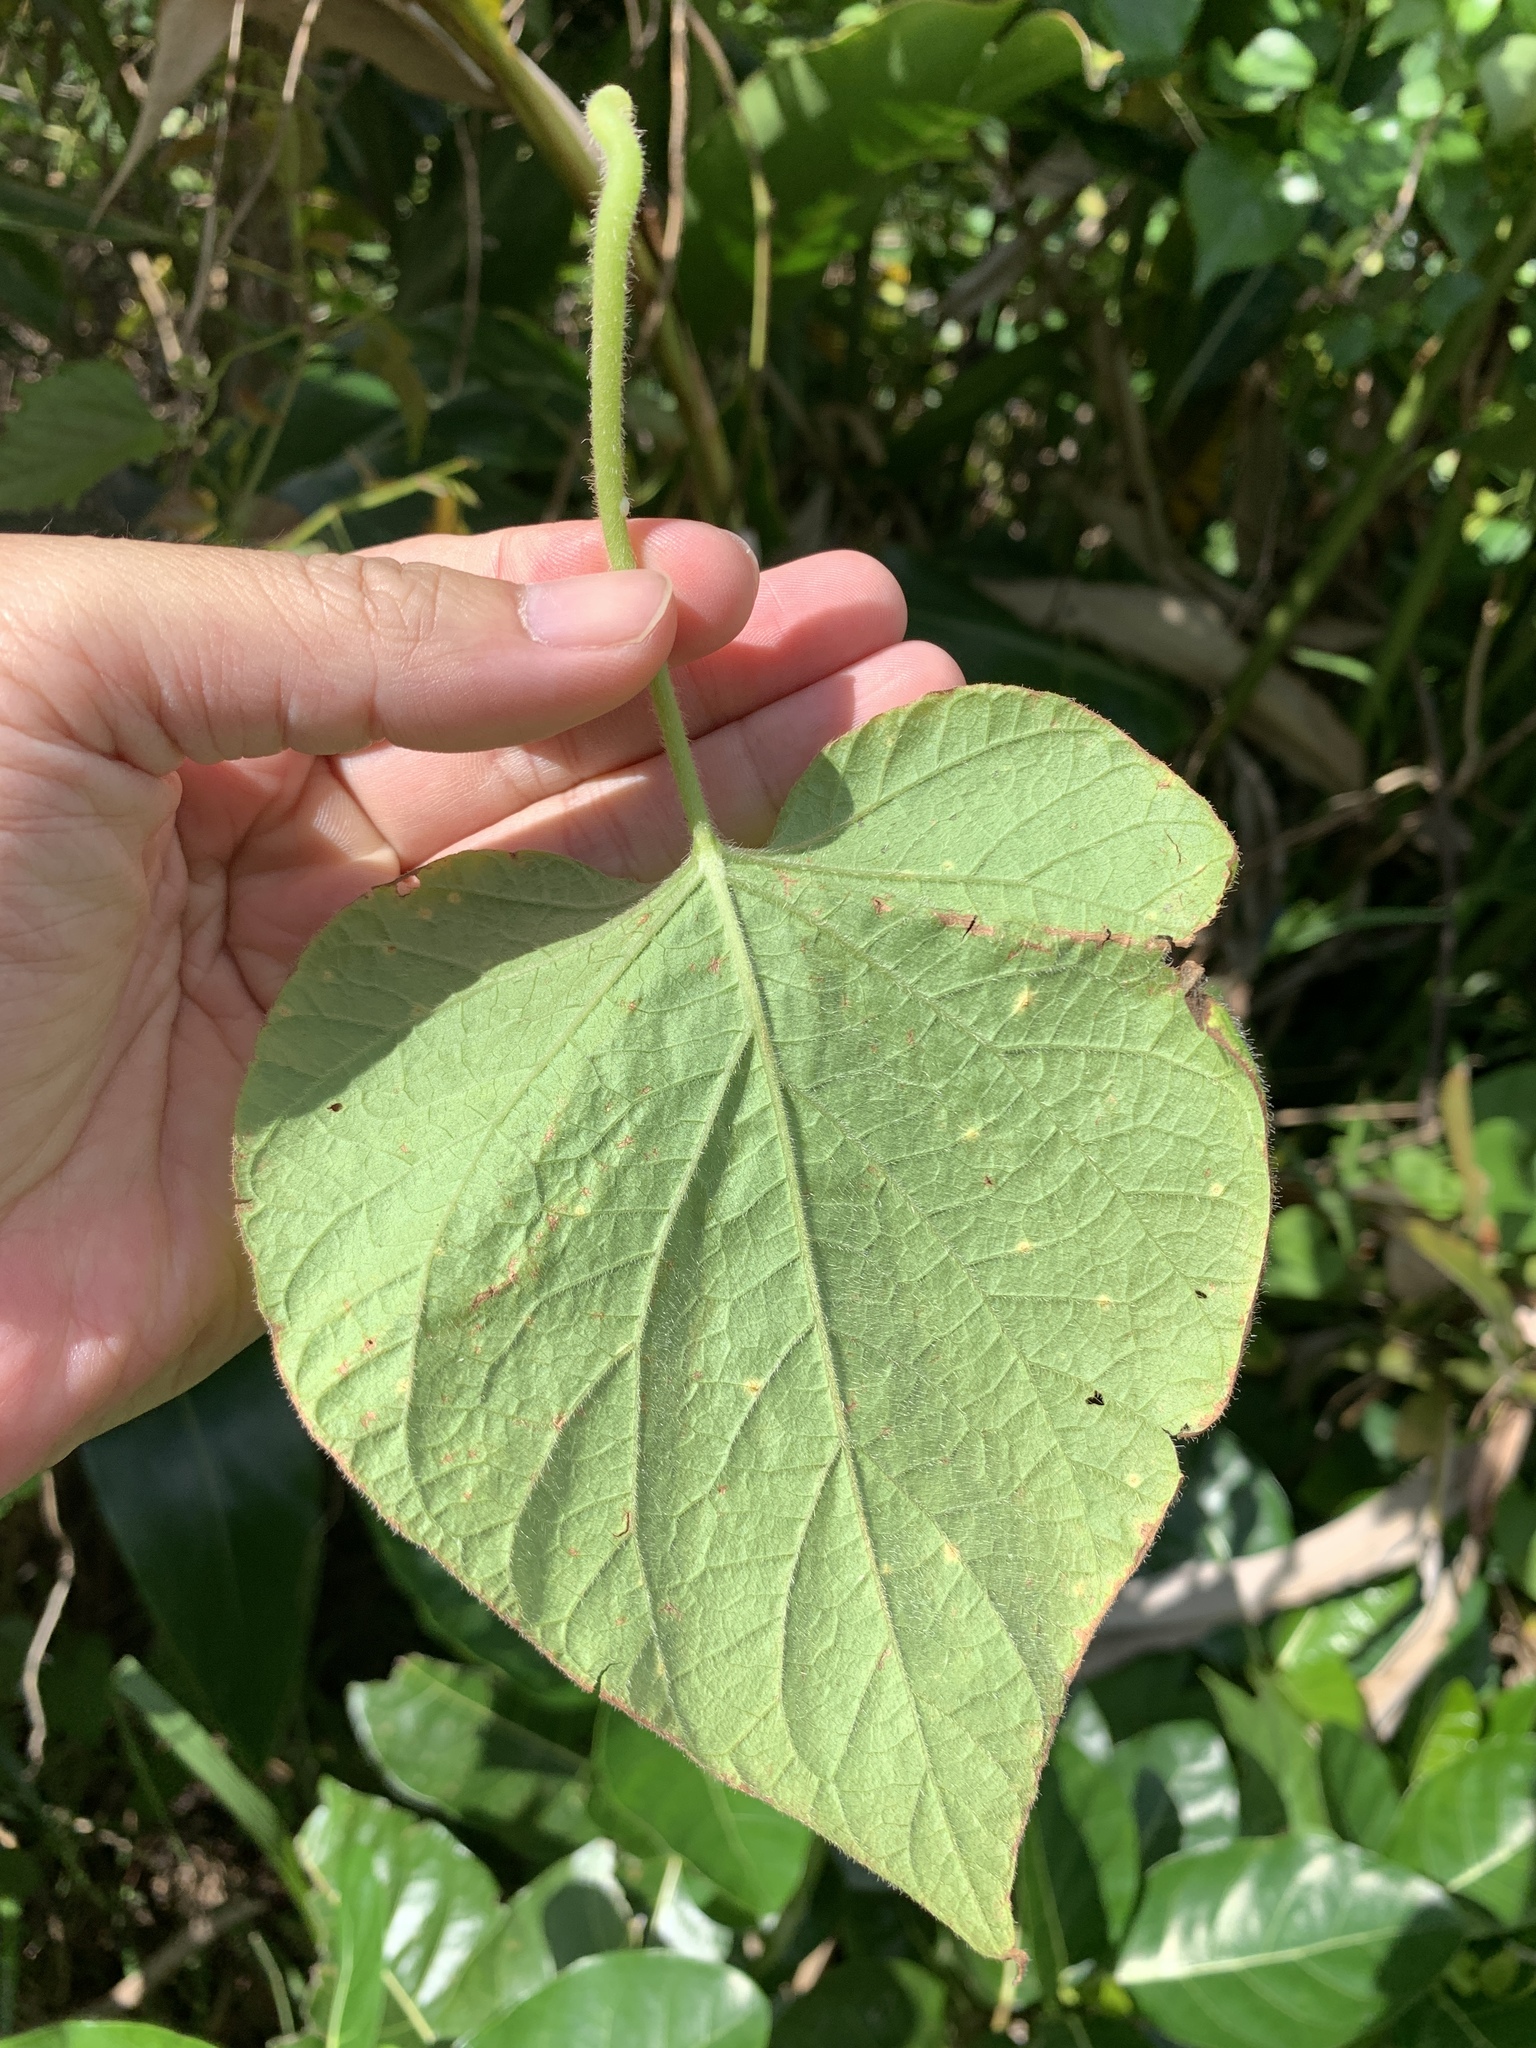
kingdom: Plantae
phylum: Tracheophyta
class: Magnoliopsida
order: Solanales
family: Convolvulaceae
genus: Lepistemon
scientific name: Lepistemon binectarifer
